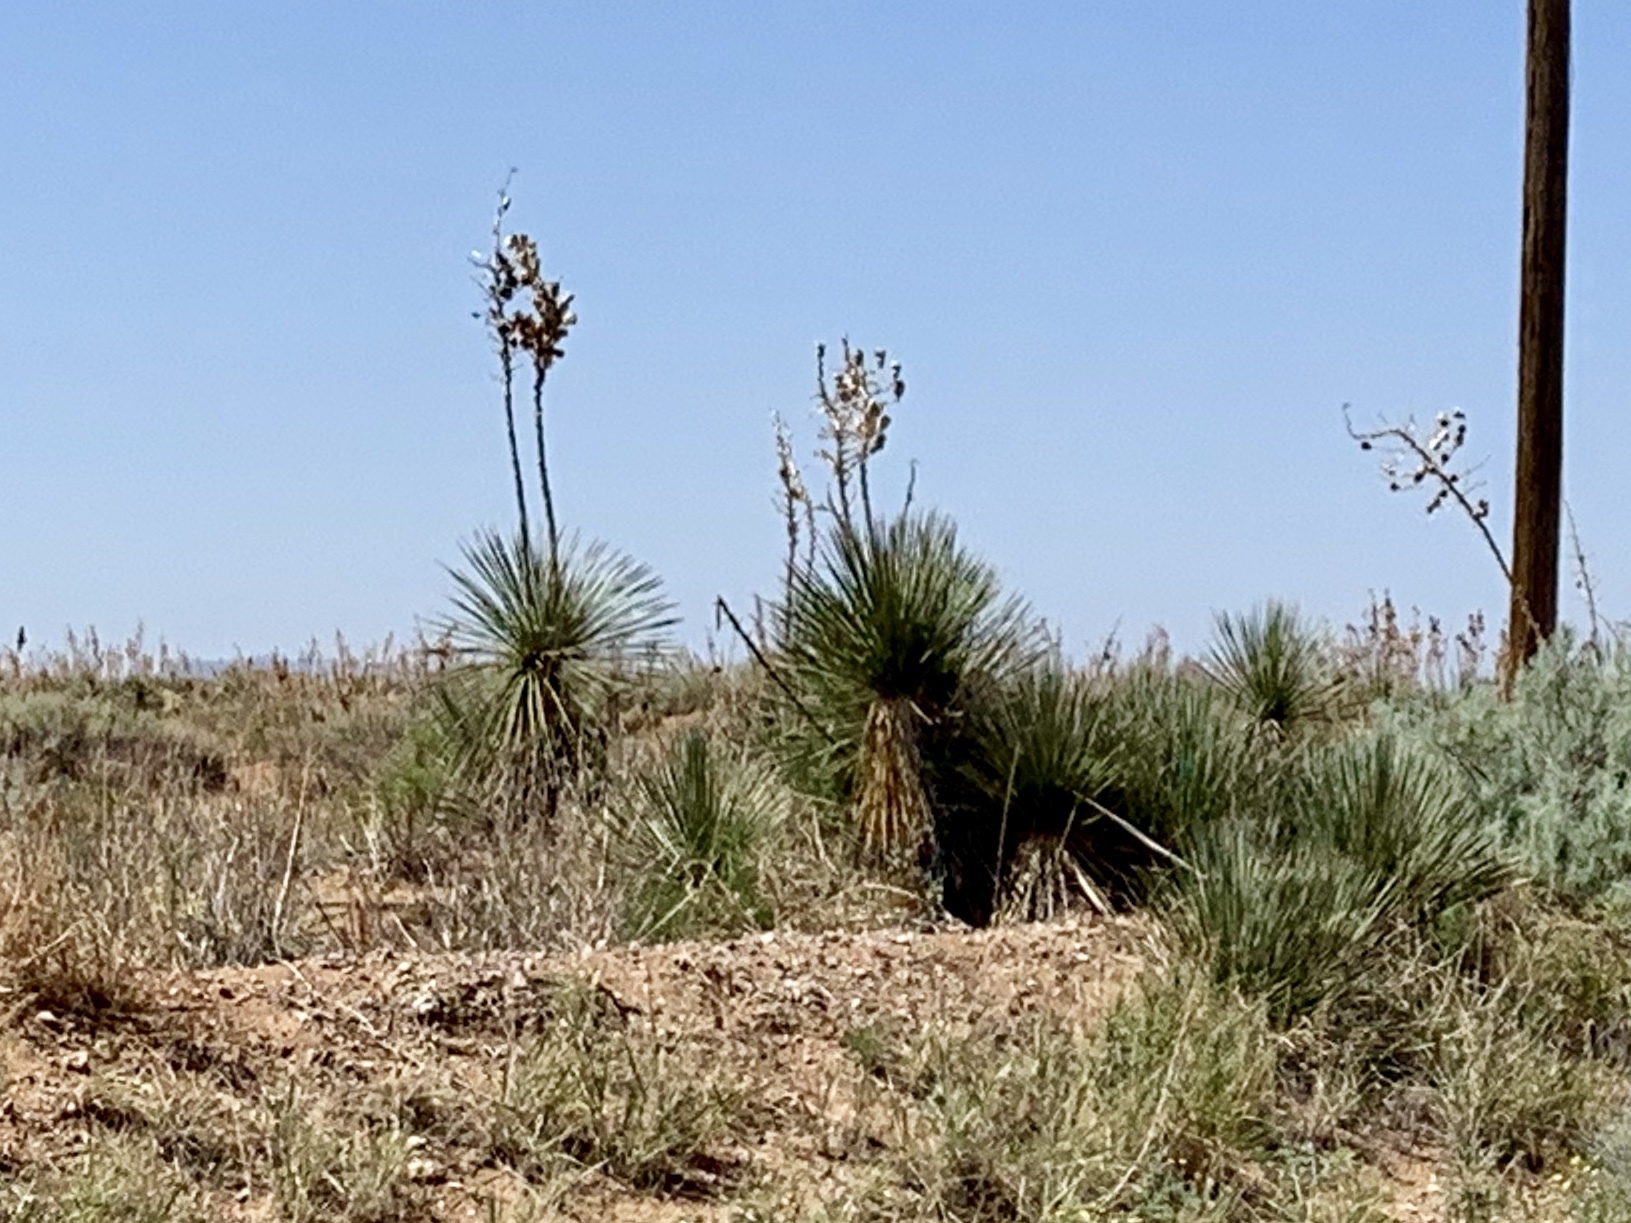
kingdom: Plantae
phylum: Tracheophyta
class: Liliopsida
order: Asparagales
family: Asparagaceae
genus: Yucca
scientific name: Yucca elata
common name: Palmella
